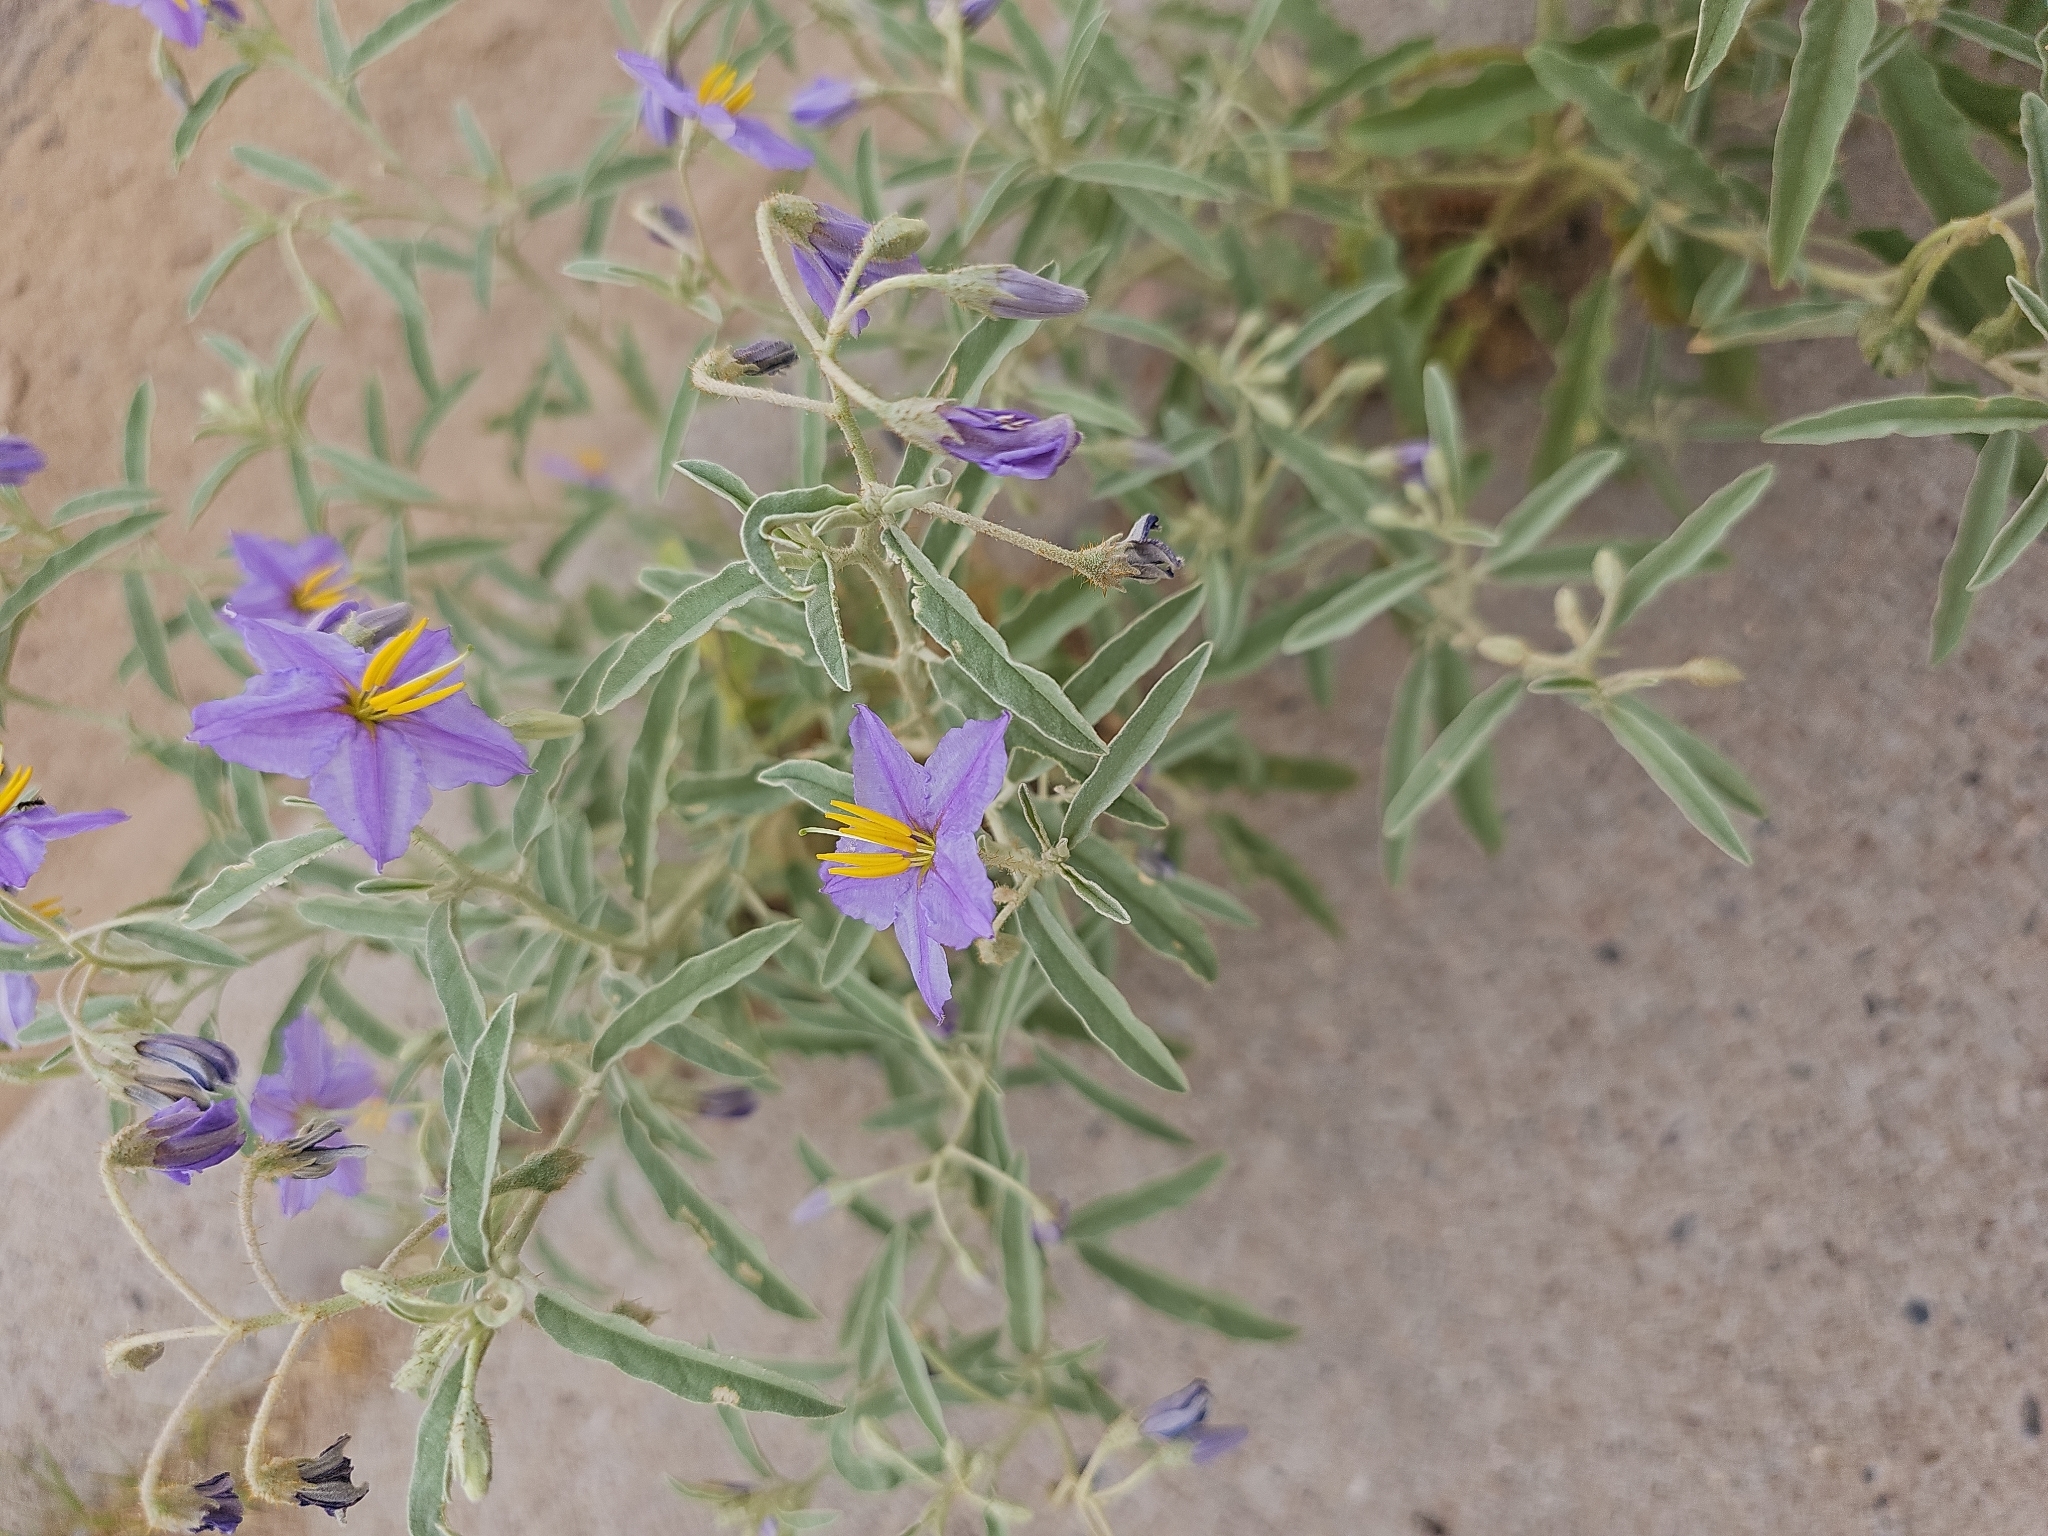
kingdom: Plantae
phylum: Tracheophyta
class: Magnoliopsida
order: Solanales
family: Solanaceae
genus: Solanum
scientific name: Solanum elaeagnifolium
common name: Silverleaf nightshade
